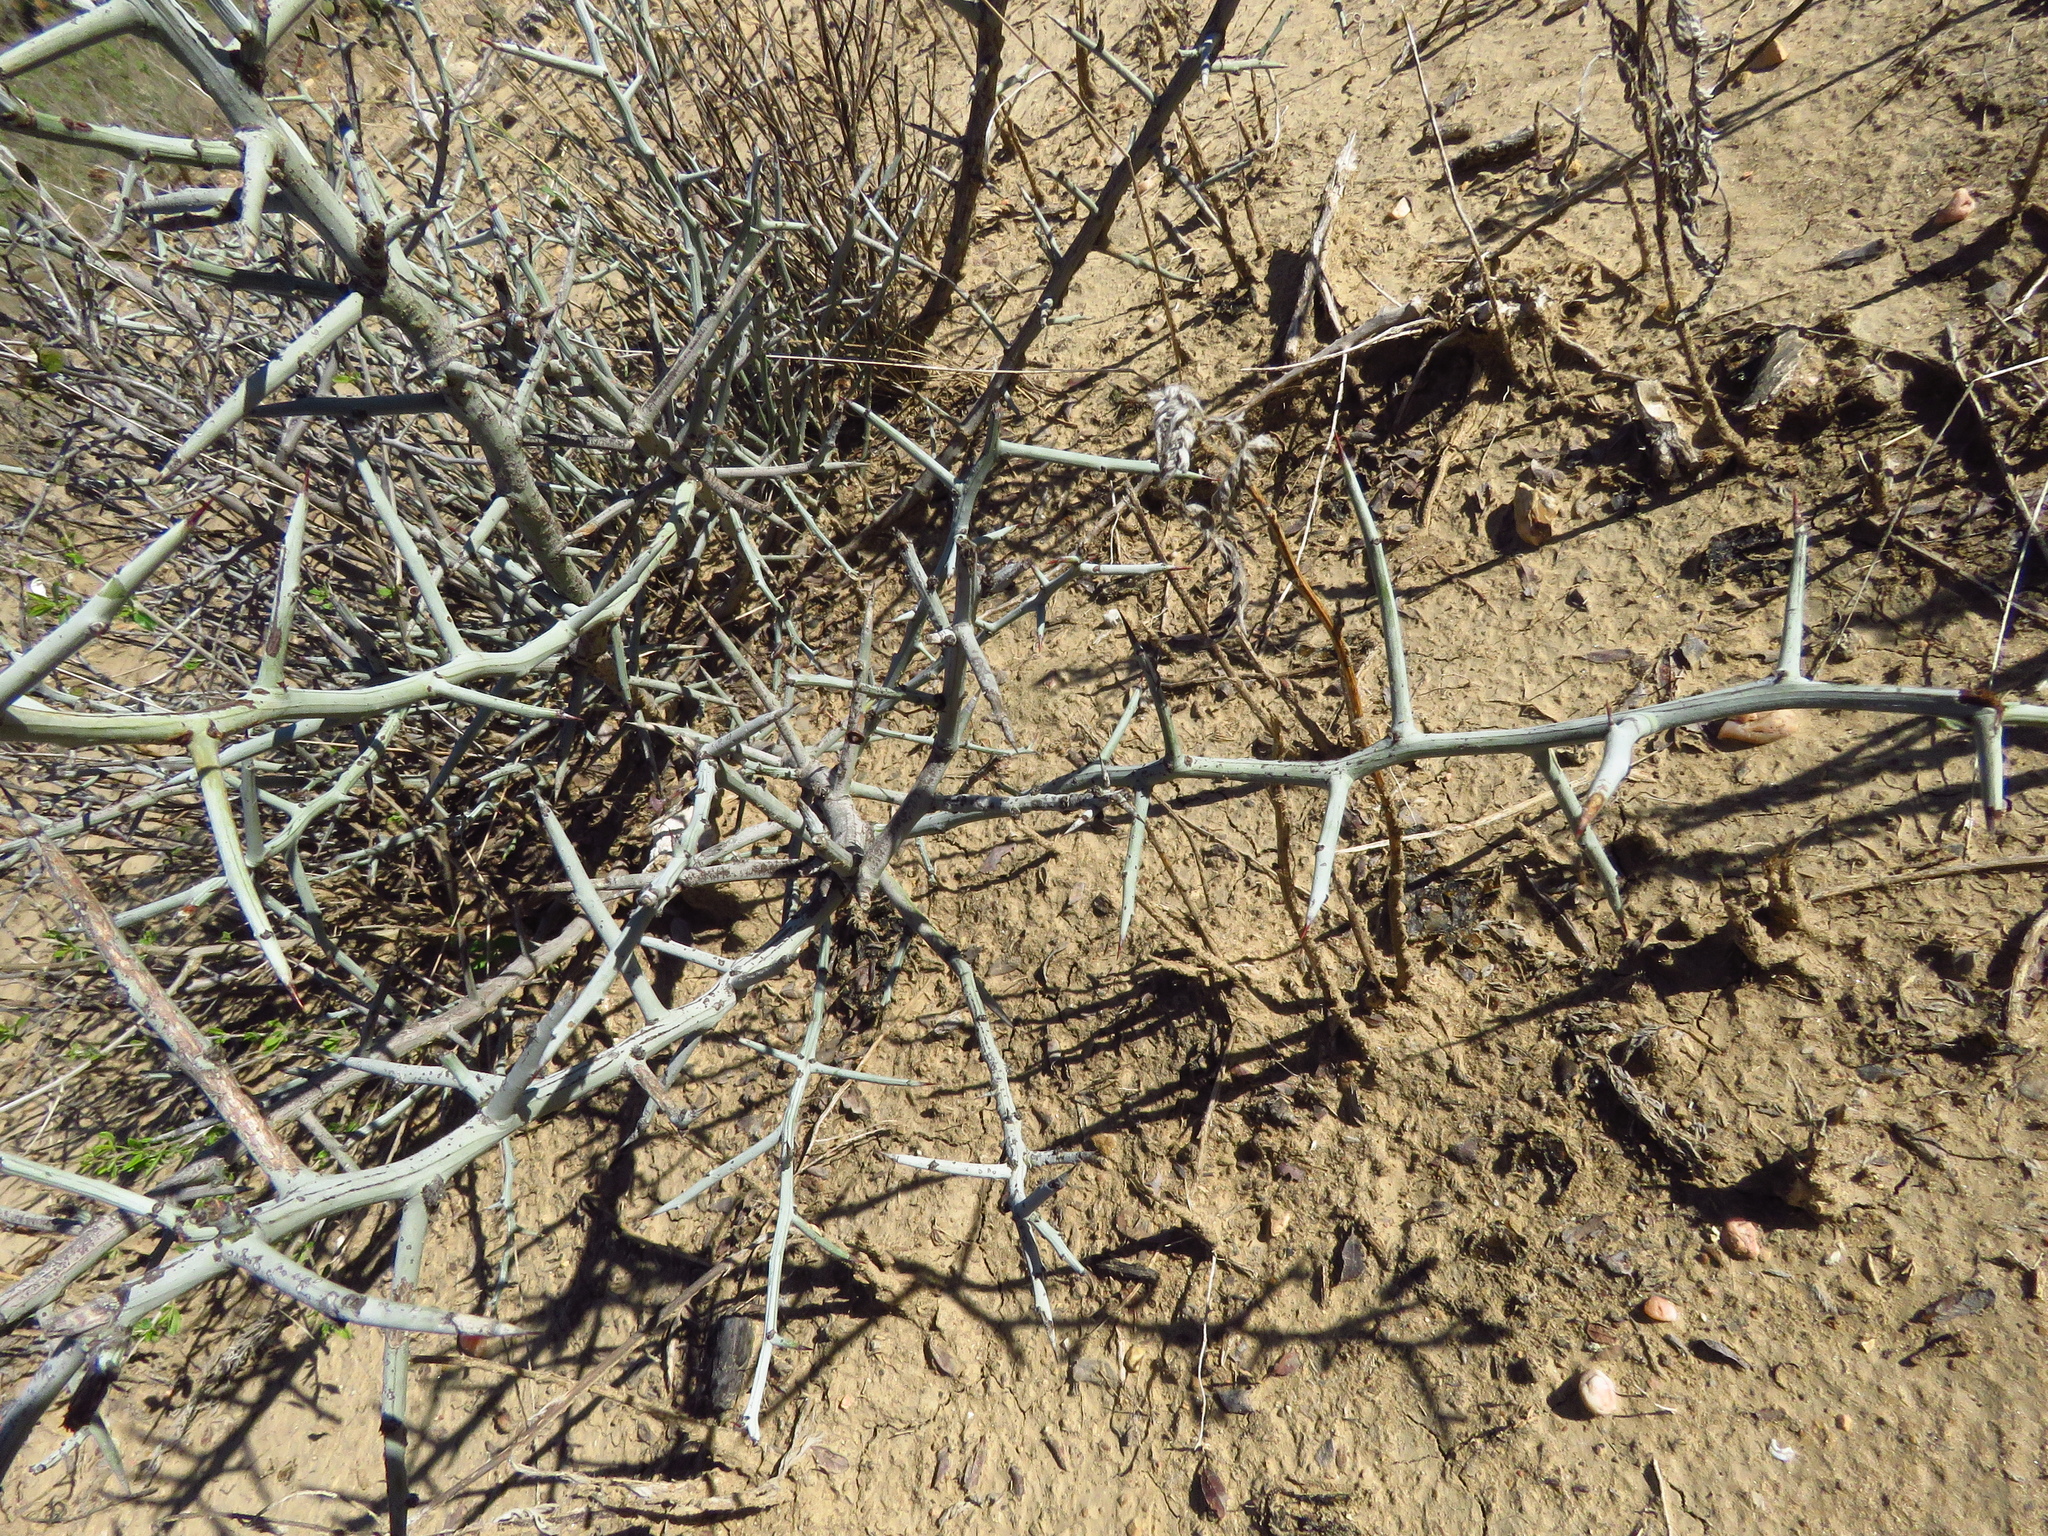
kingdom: Plantae
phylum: Tracheophyta
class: Magnoliopsida
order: Rosales
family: Rhamnaceae
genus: Sarcomphalus
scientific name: Sarcomphalus obtusifolius
